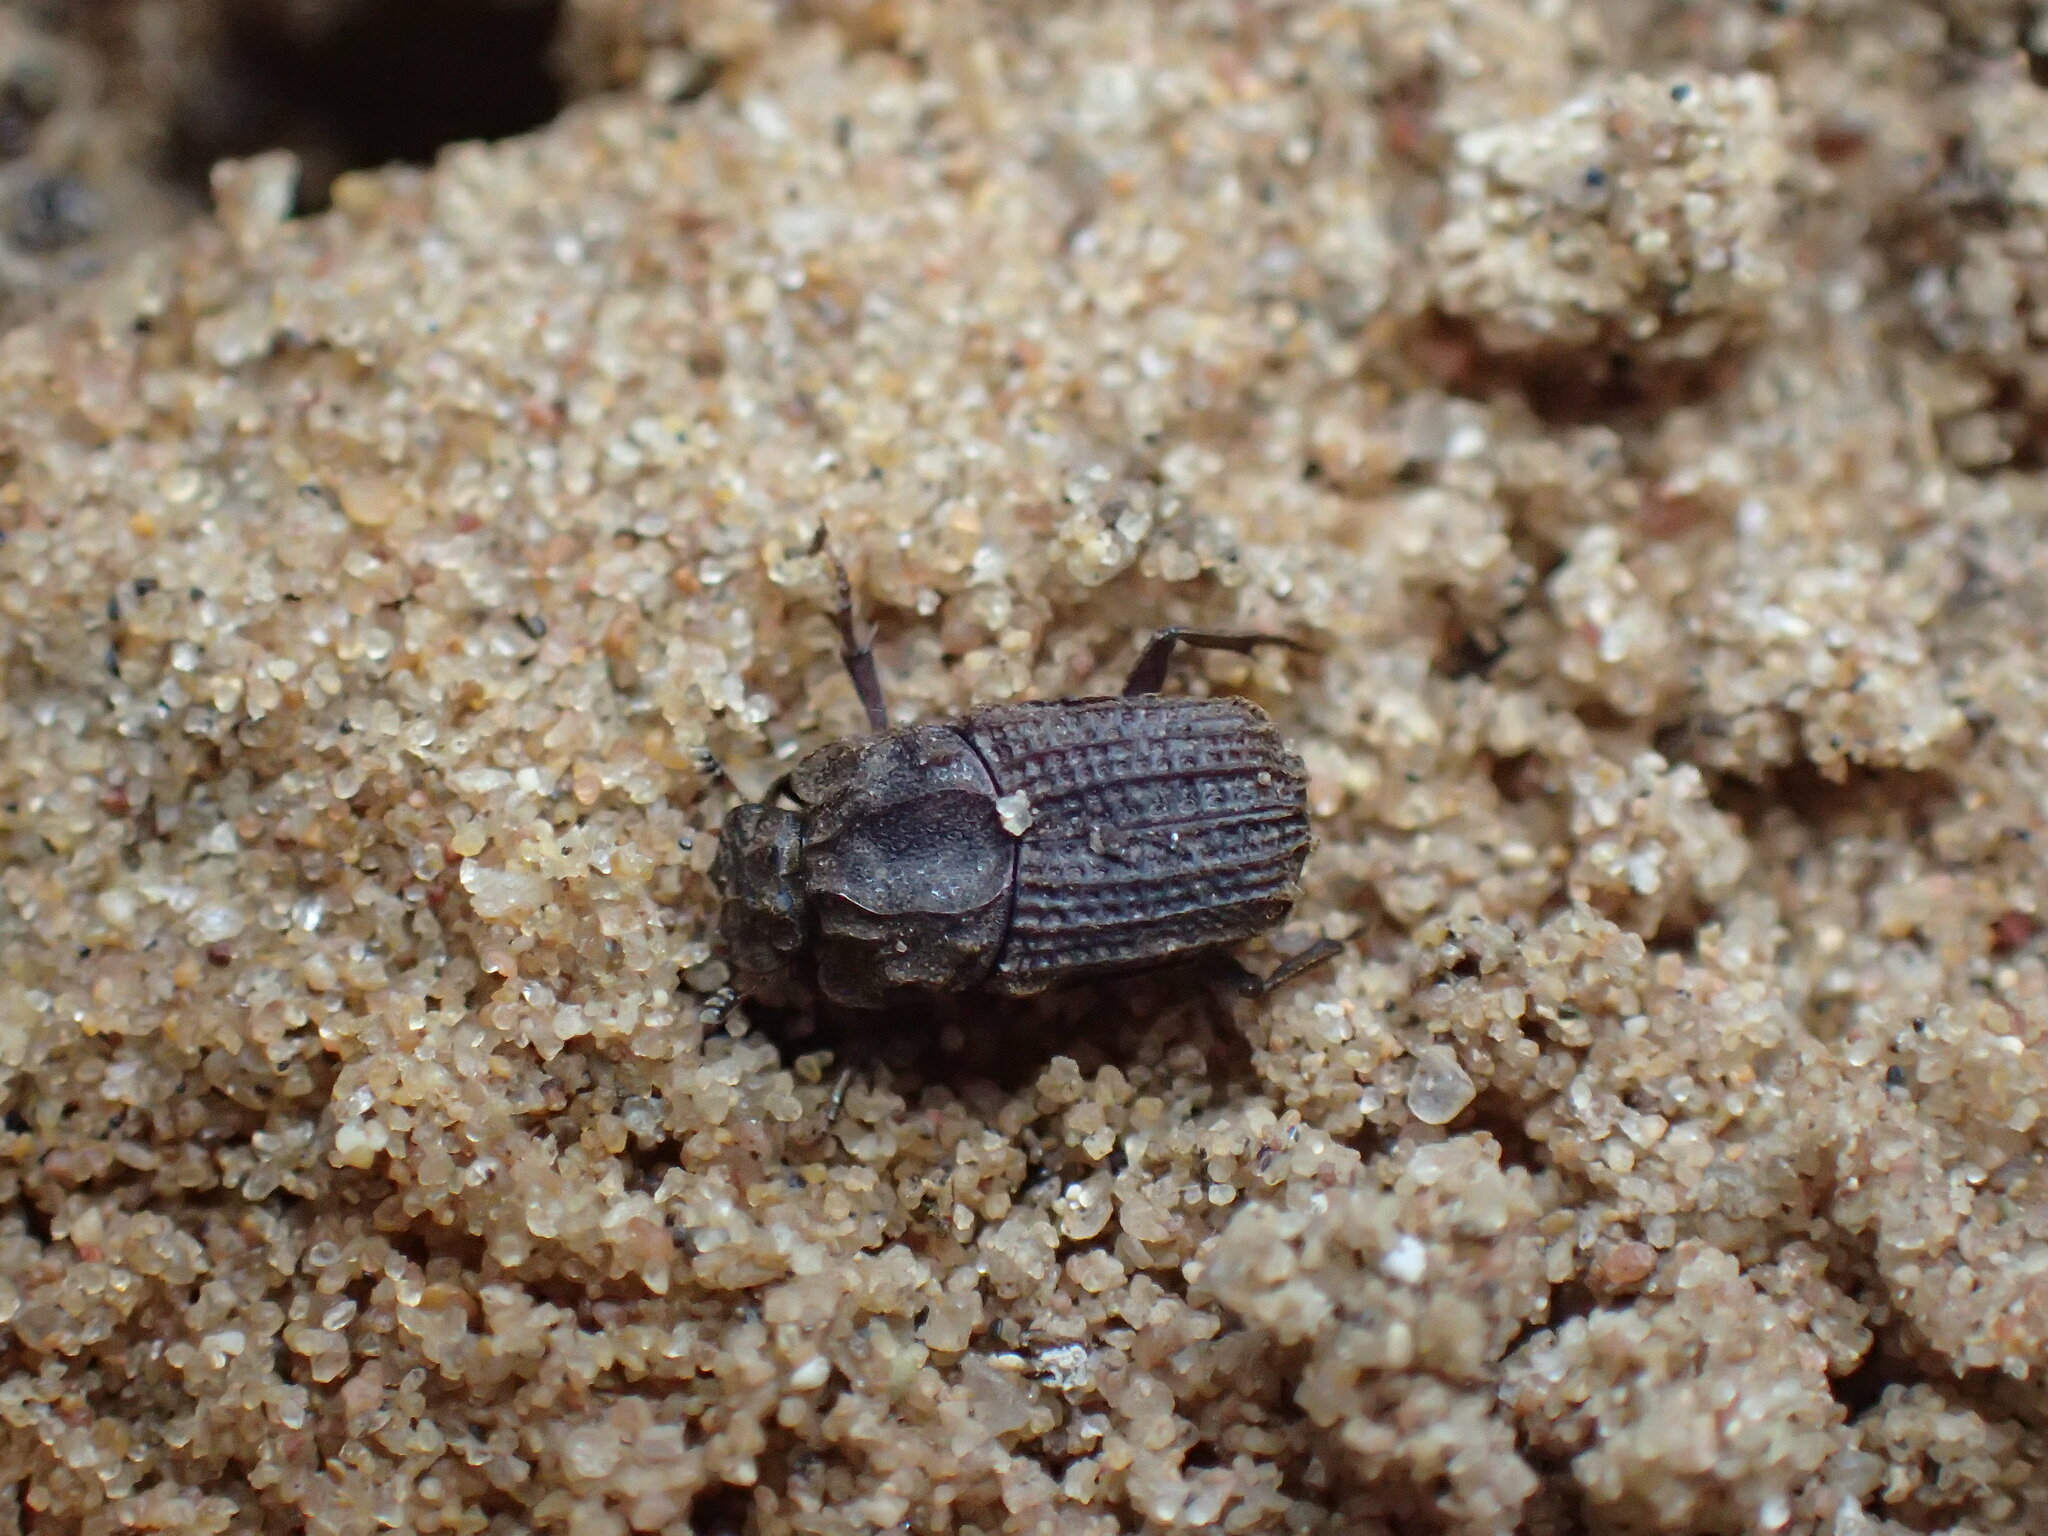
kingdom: Animalia
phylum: Arthropoda
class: Insecta
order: Coleoptera
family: Scarabaeidae
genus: Afrodrepanus
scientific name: Afrodrepanus impressicollis
